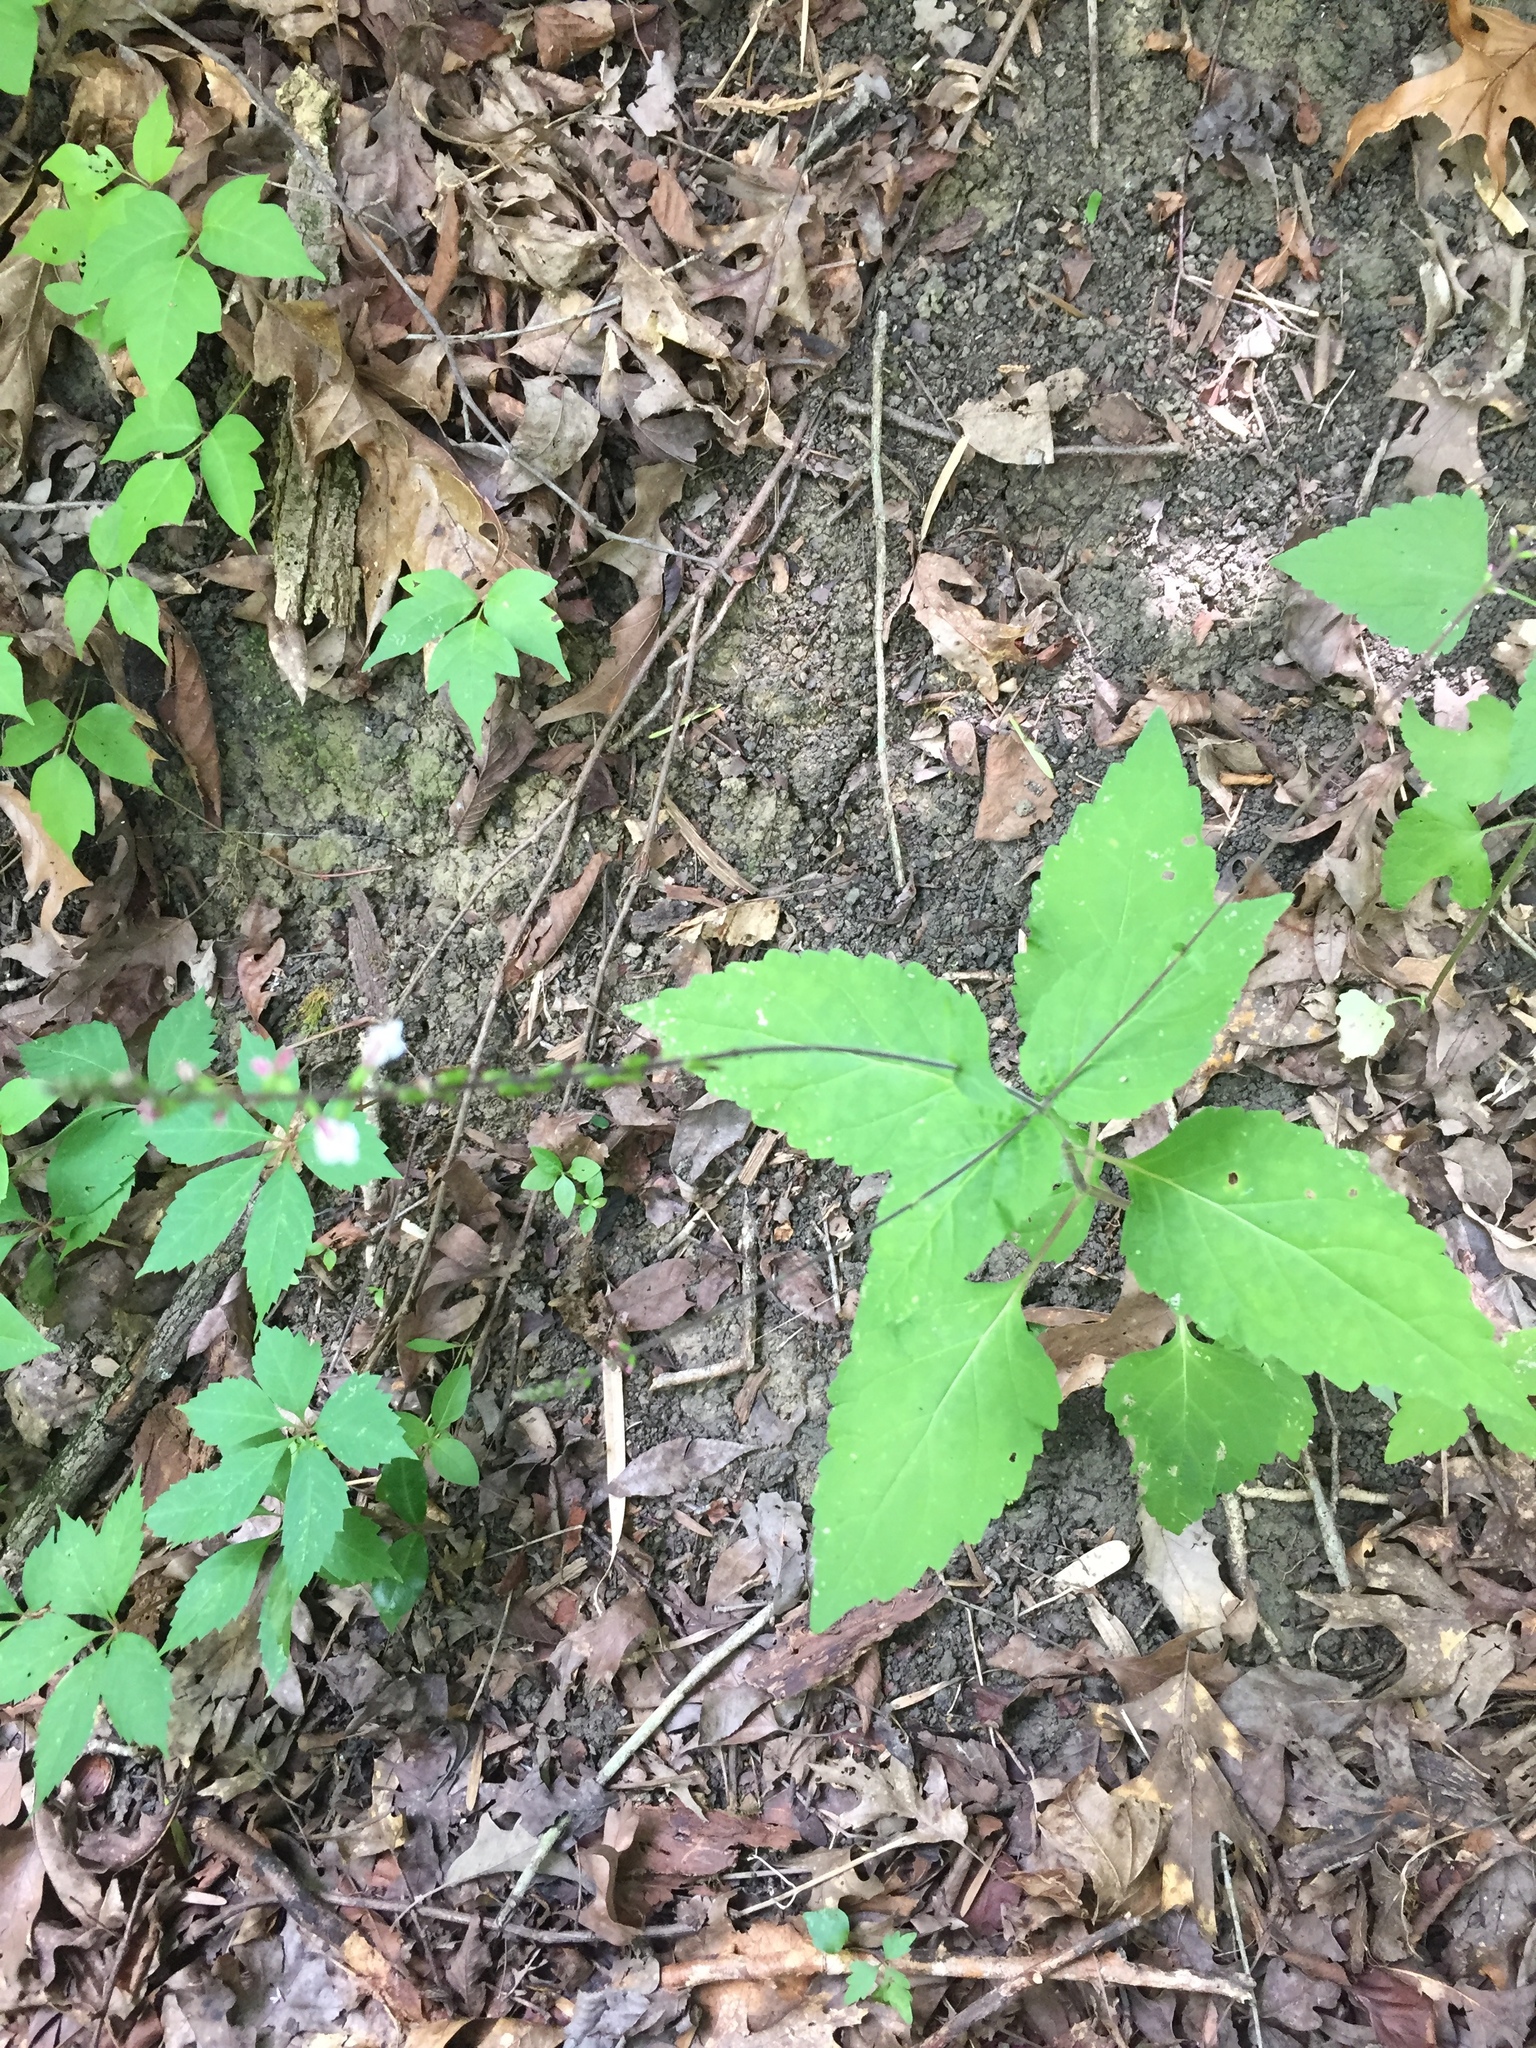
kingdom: Plantae
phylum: Tracheophyta
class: Magnoliopsida
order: Lamiales
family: Phrymaceae
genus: Phryma
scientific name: Phryma leptostachya
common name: American lopseed
